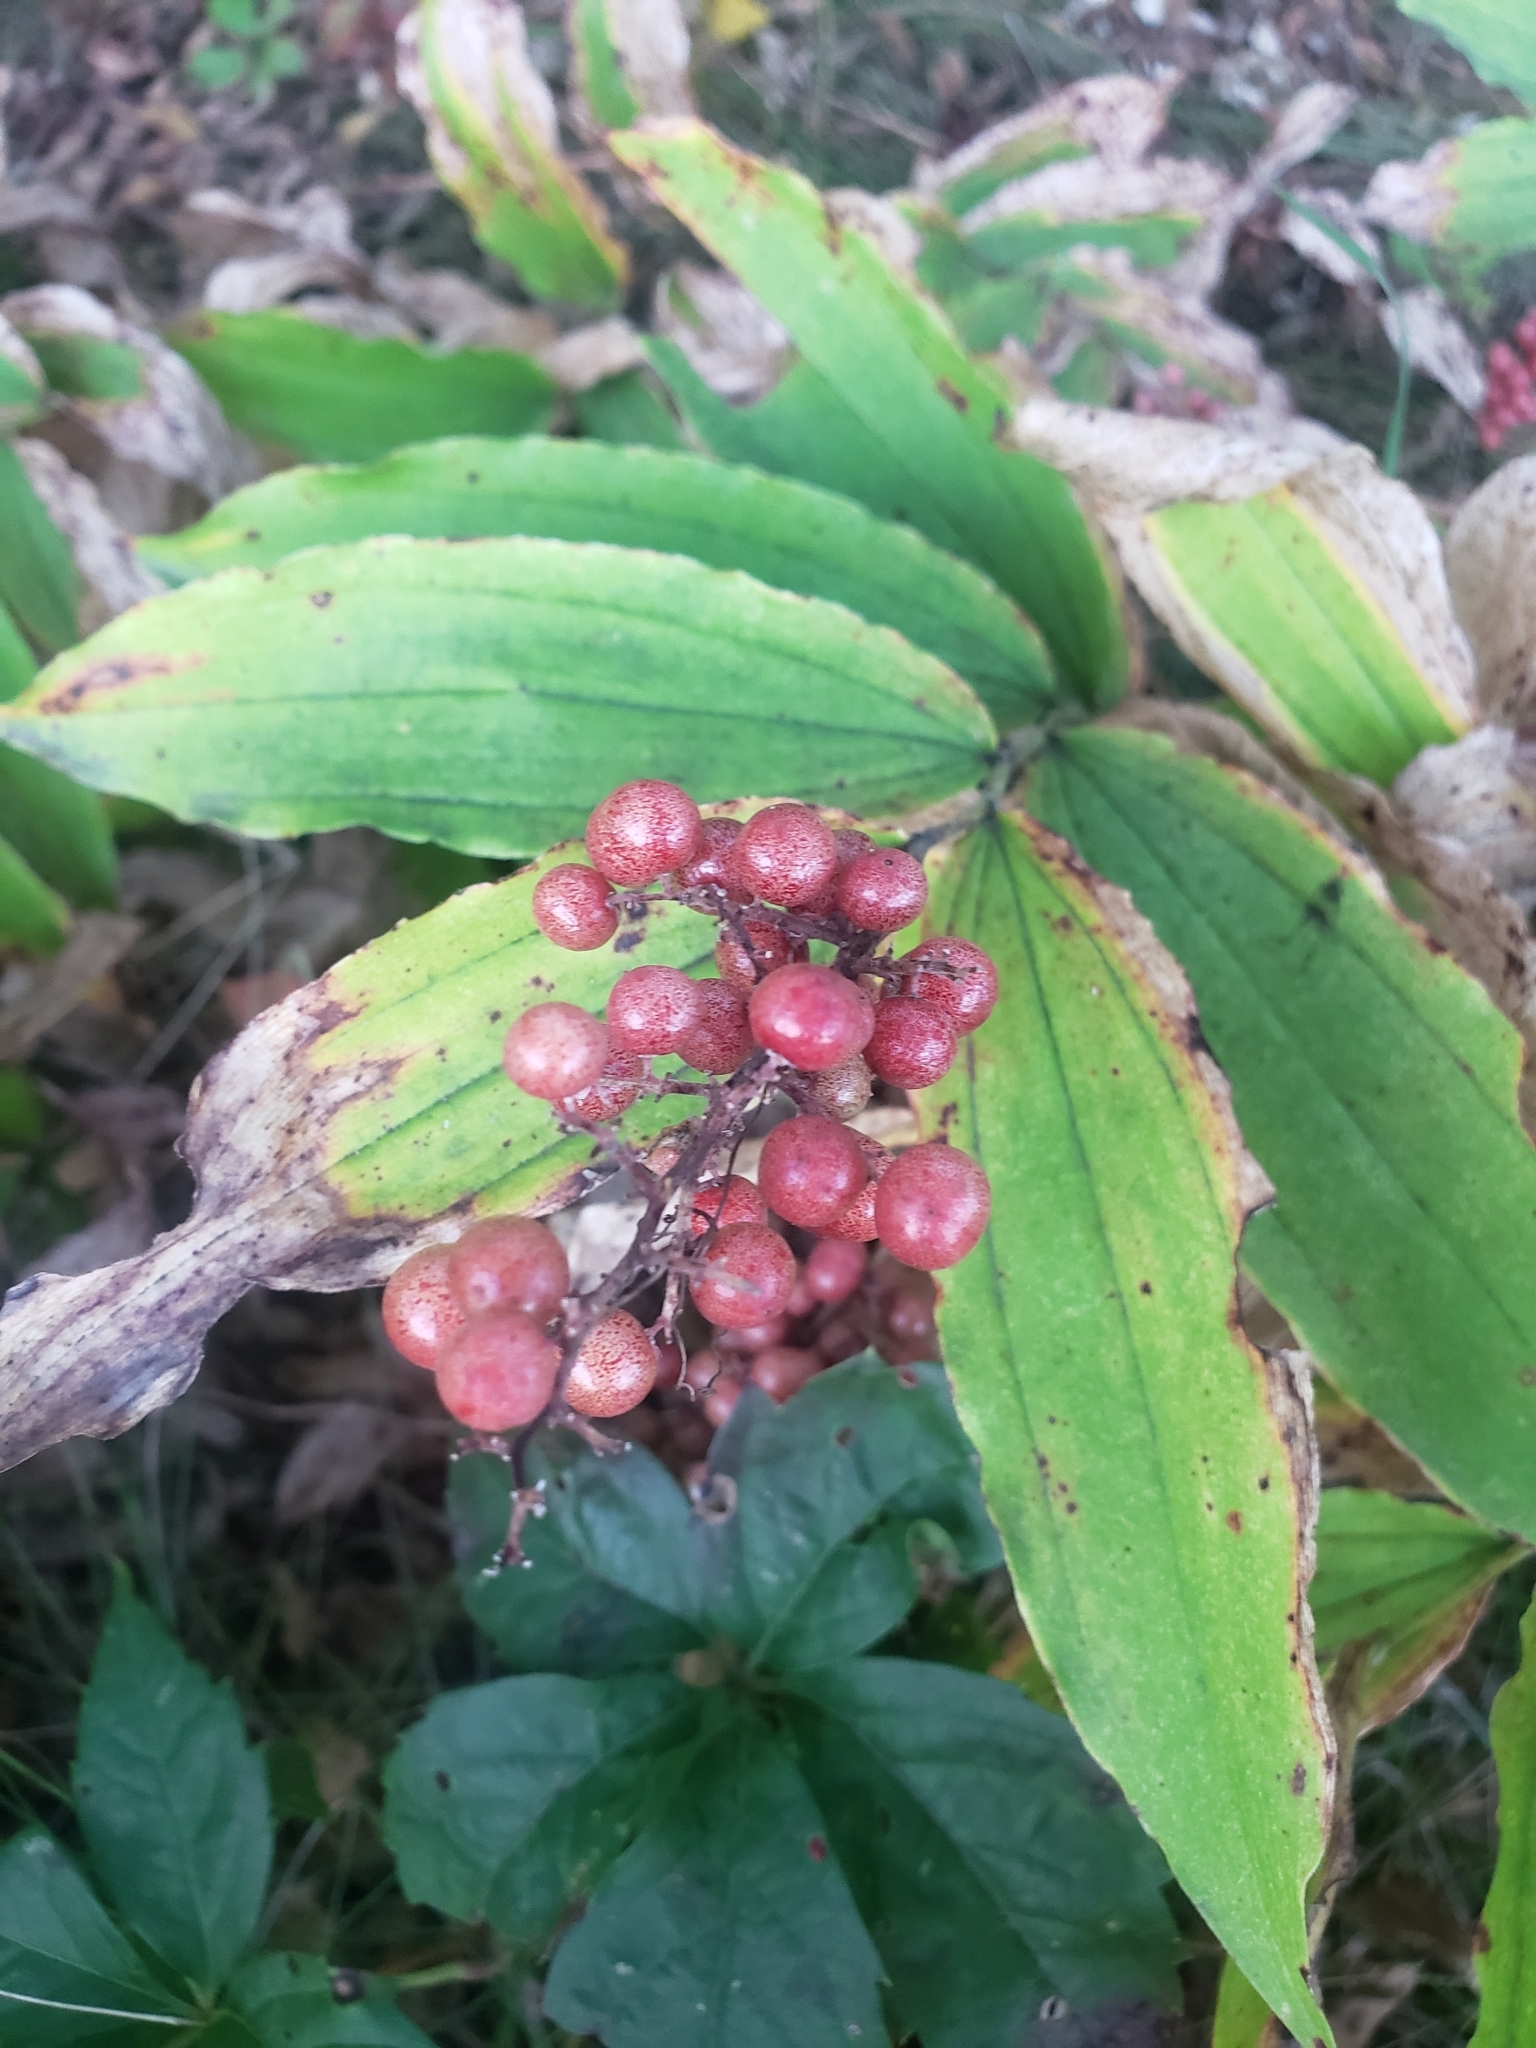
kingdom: Plantae
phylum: Tracheophyta
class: Liliopsida
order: Asparagales
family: Asparagaceae
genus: Maianthemum
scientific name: Maianthemum racemosum
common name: False spikenard
